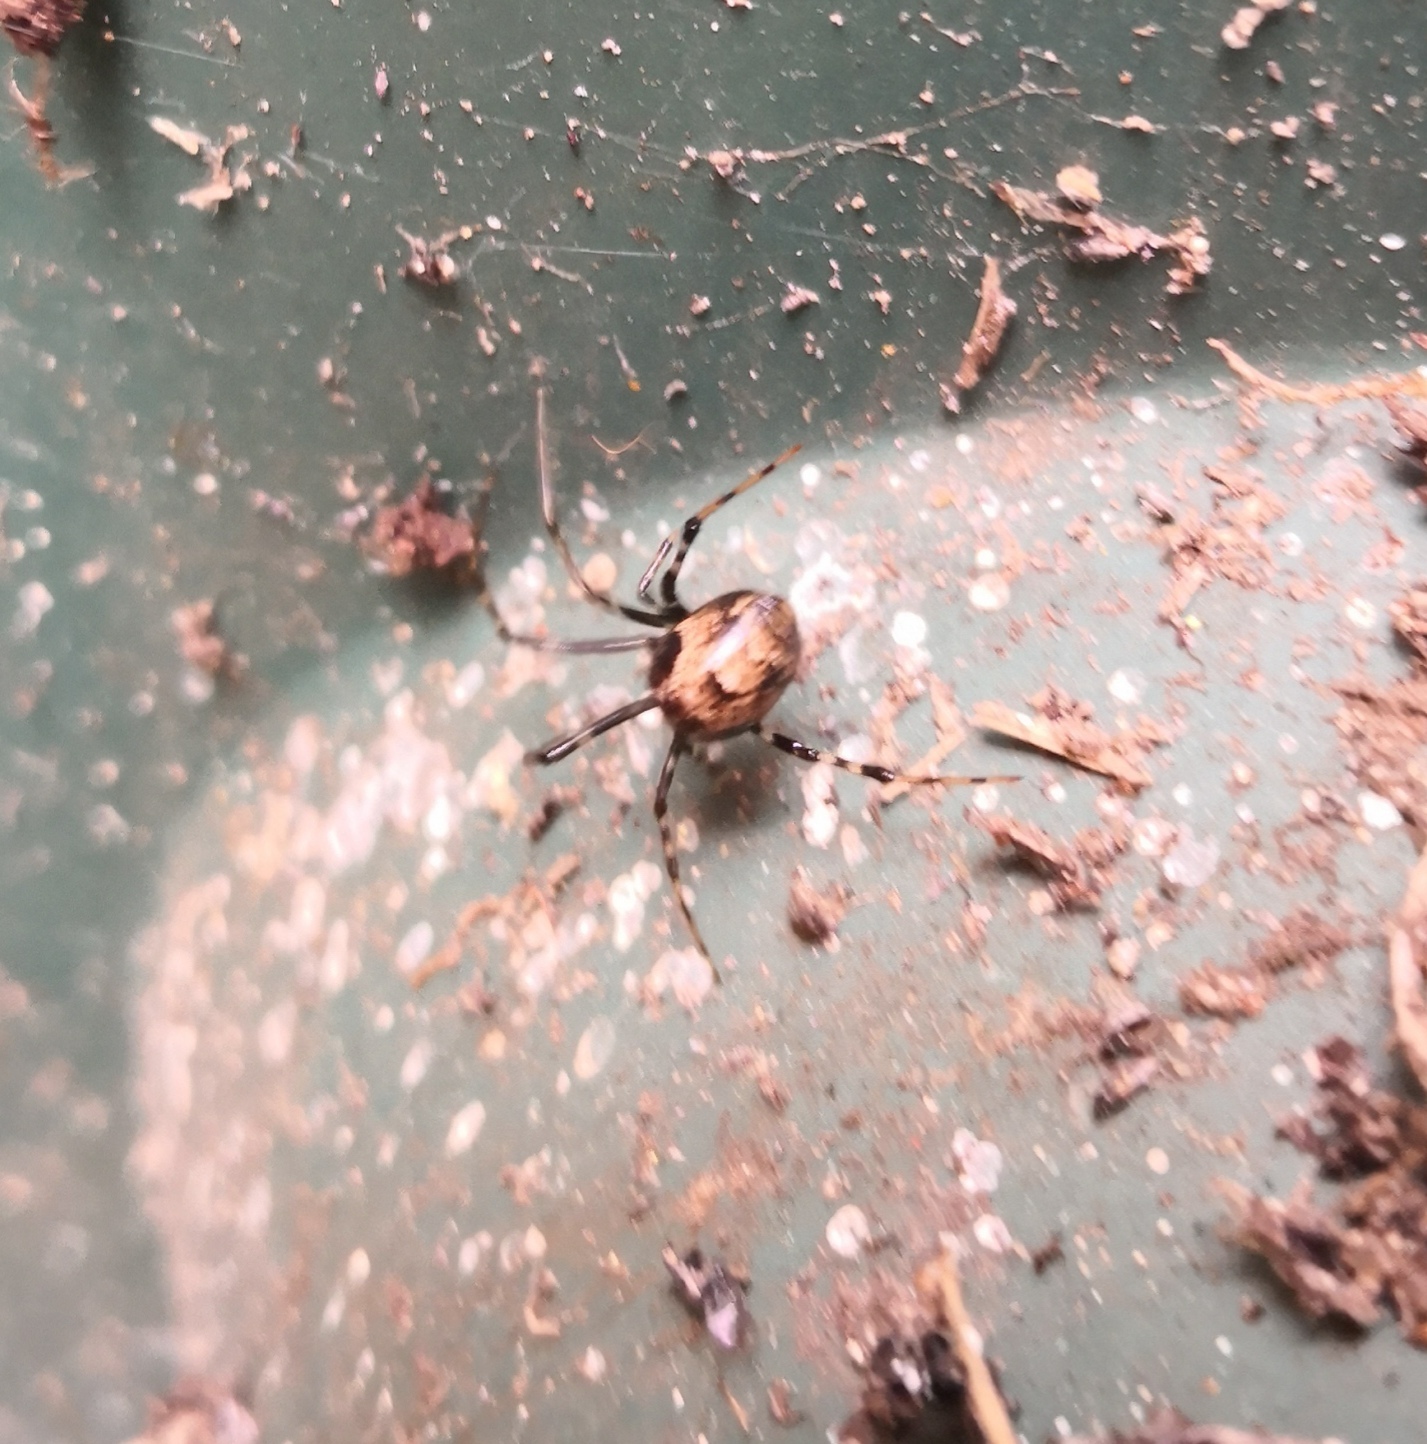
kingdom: Animalia
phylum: Arthropoda
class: Arachnida
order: Araneae
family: Theridiidae
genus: Parasteatoda
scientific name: Parasteatoda tepidariorum
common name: Common house spider
